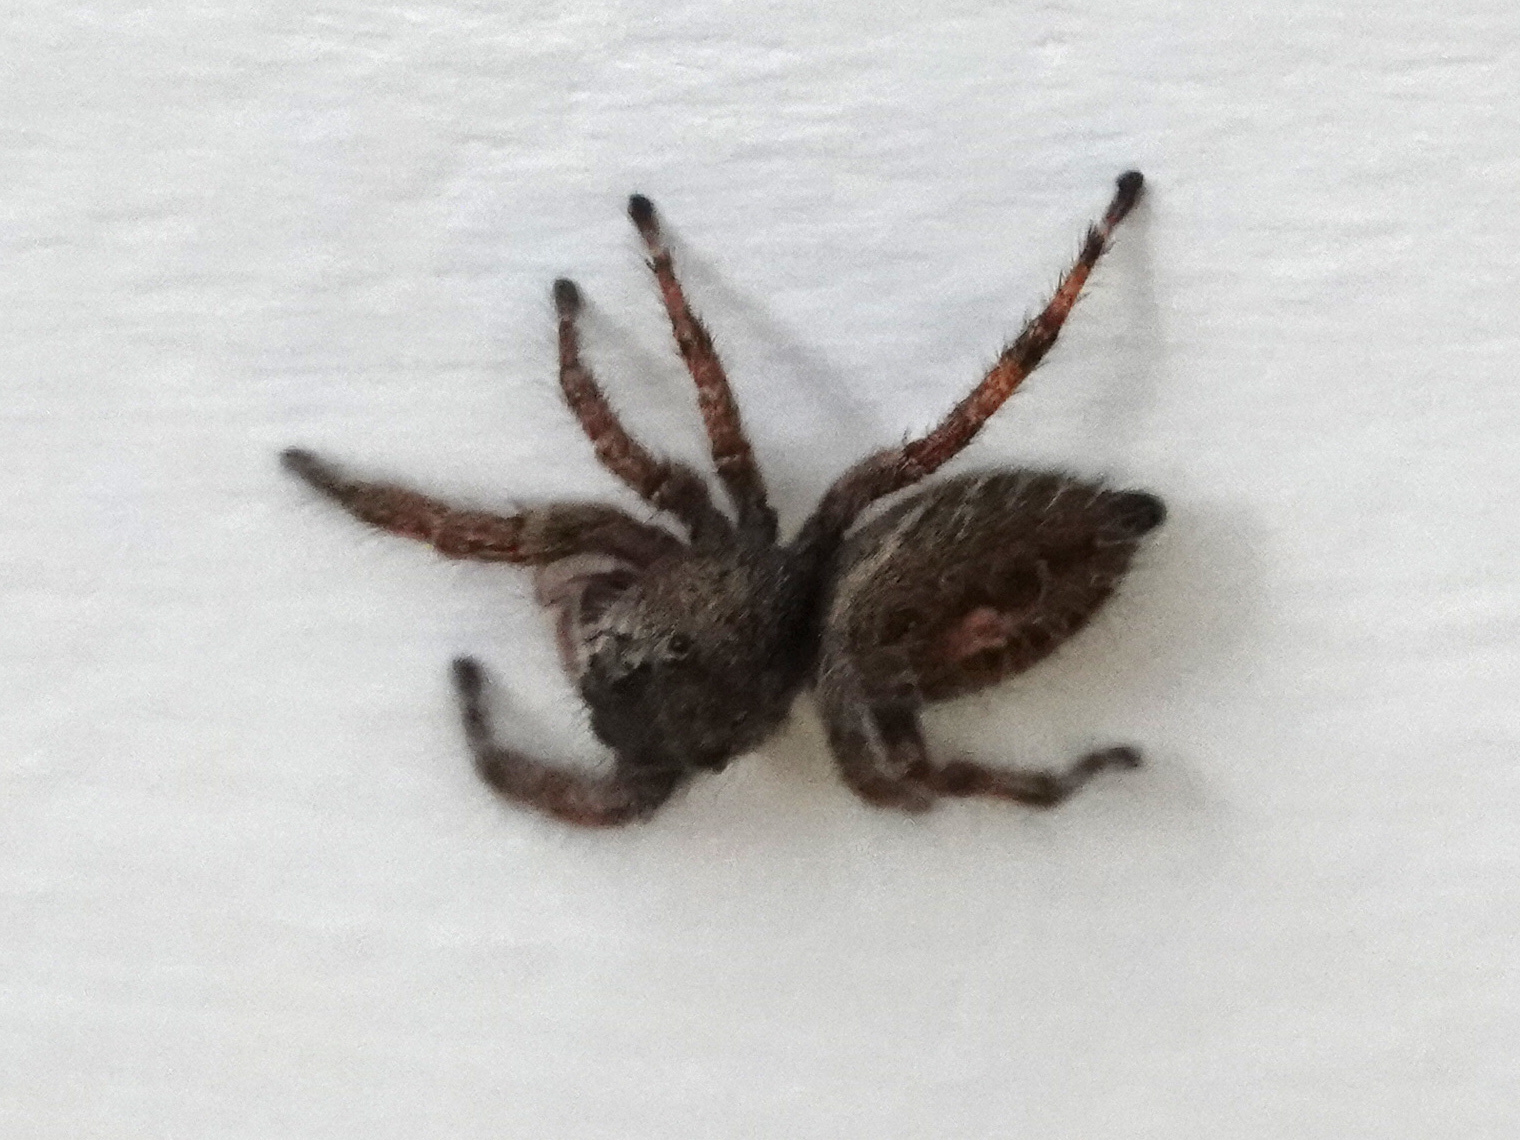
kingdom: Animalia
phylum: Arthropoda
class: Arachnida
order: Araneae
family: Salticidae
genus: Phidippus
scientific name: Phidippus princeps
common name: Grayish jumping spider
